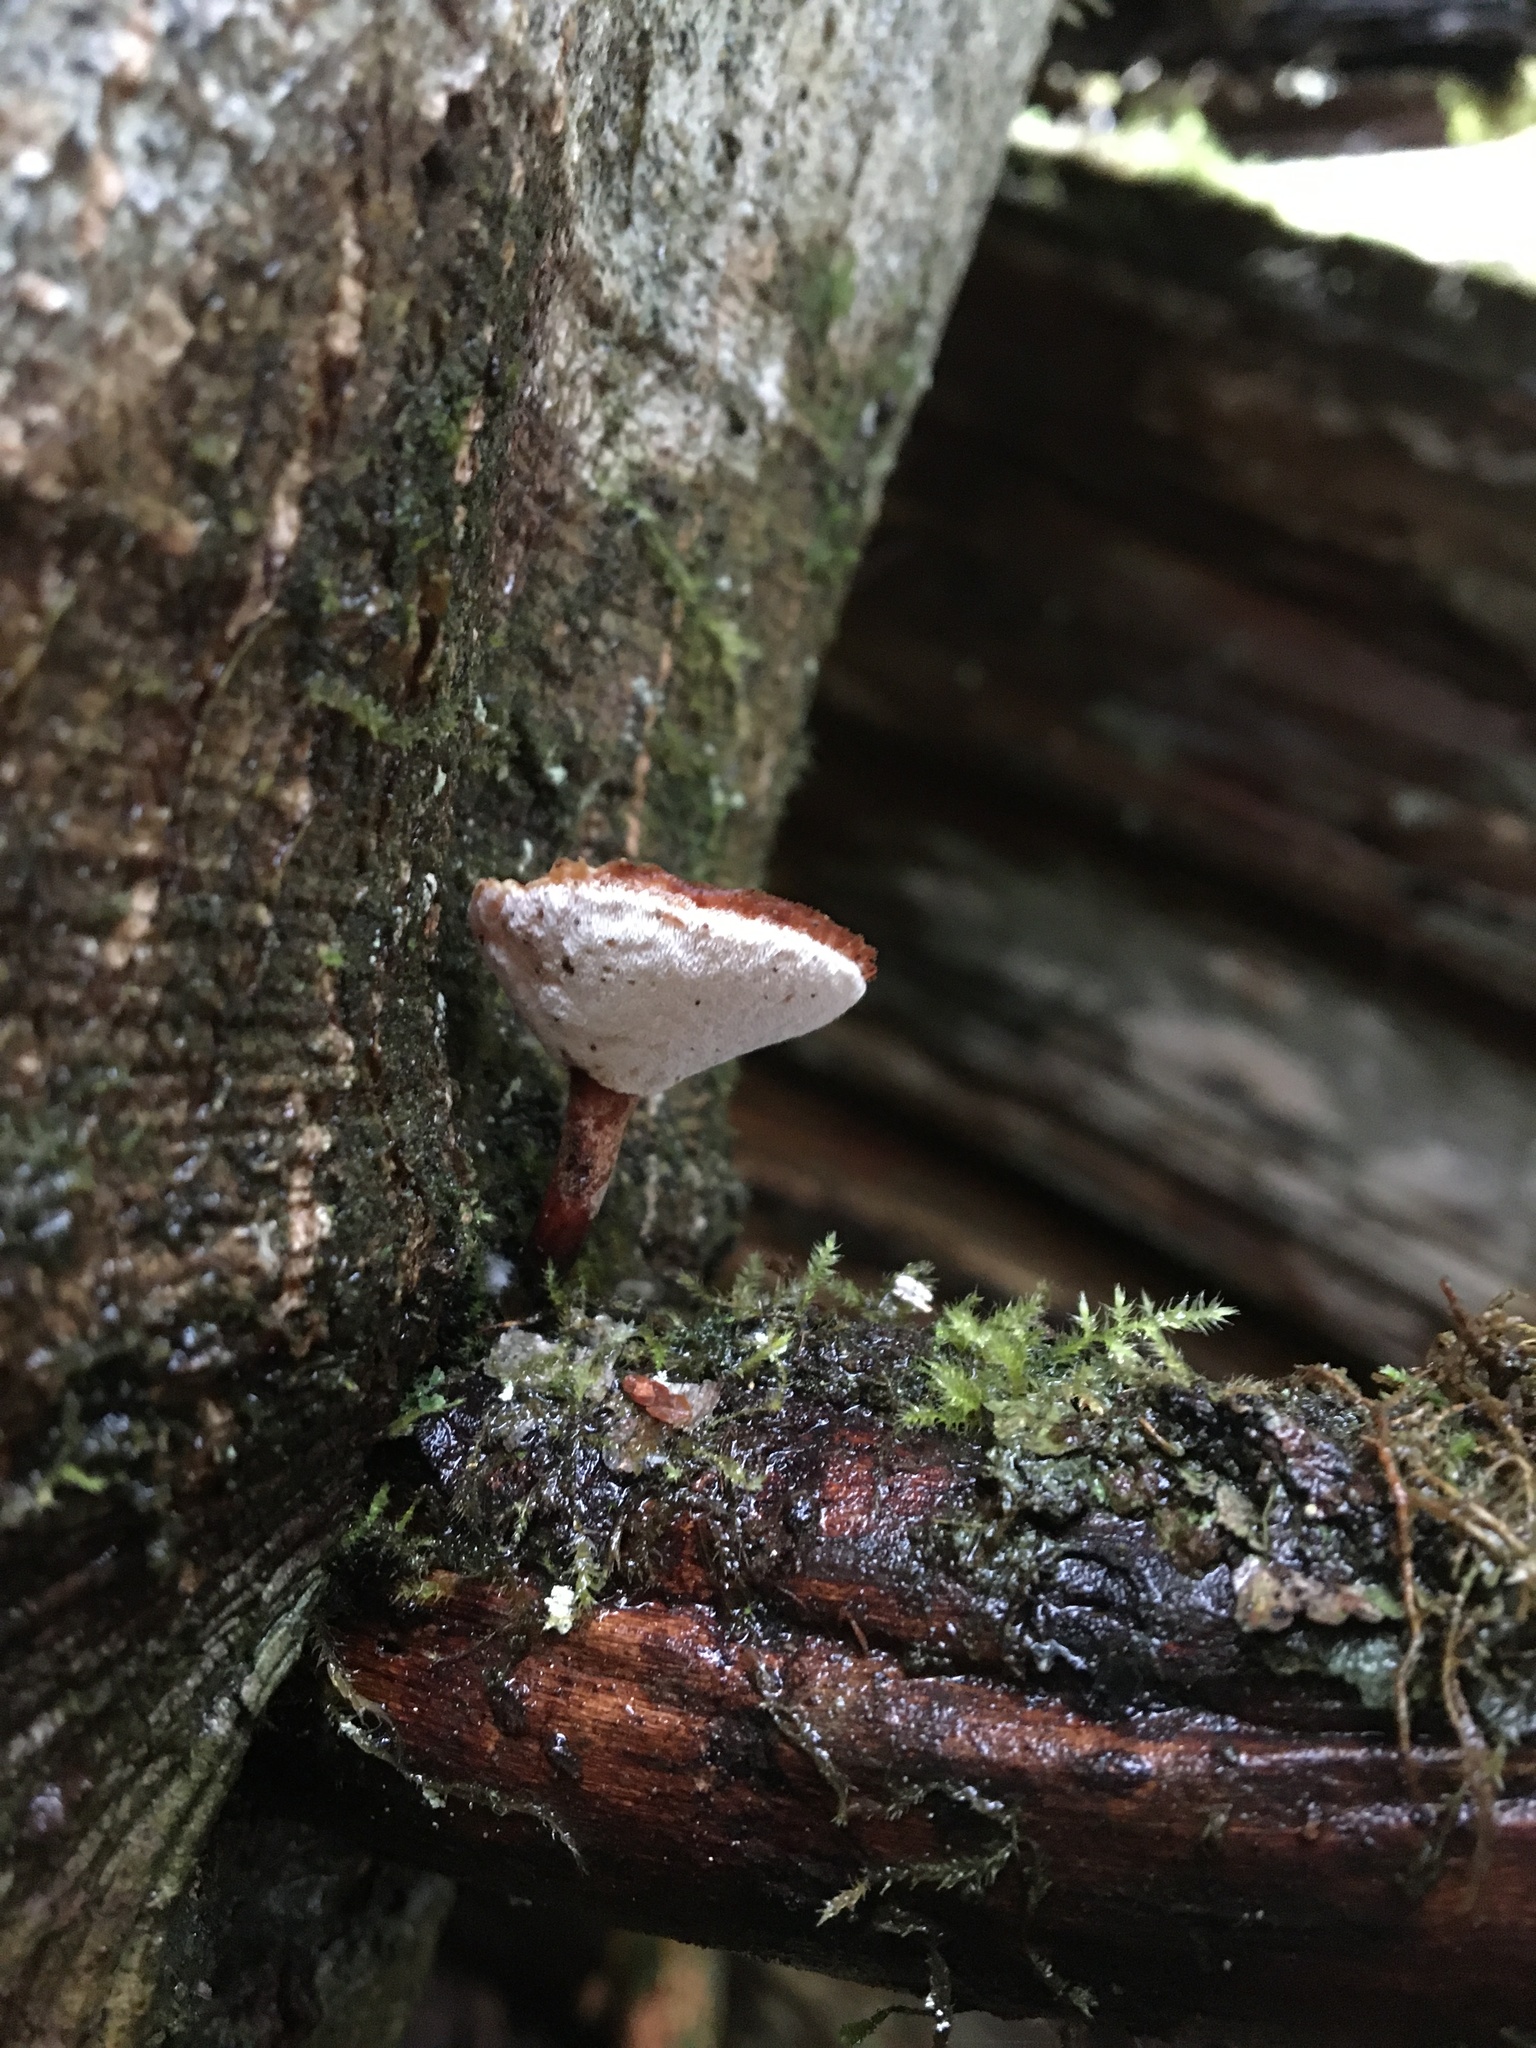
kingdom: Fungi
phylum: Basidiomycota
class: Agaricomycetes
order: Polyporales
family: Polyporaceae
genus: Picipes
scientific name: Picipes badius
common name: Bay polypore
